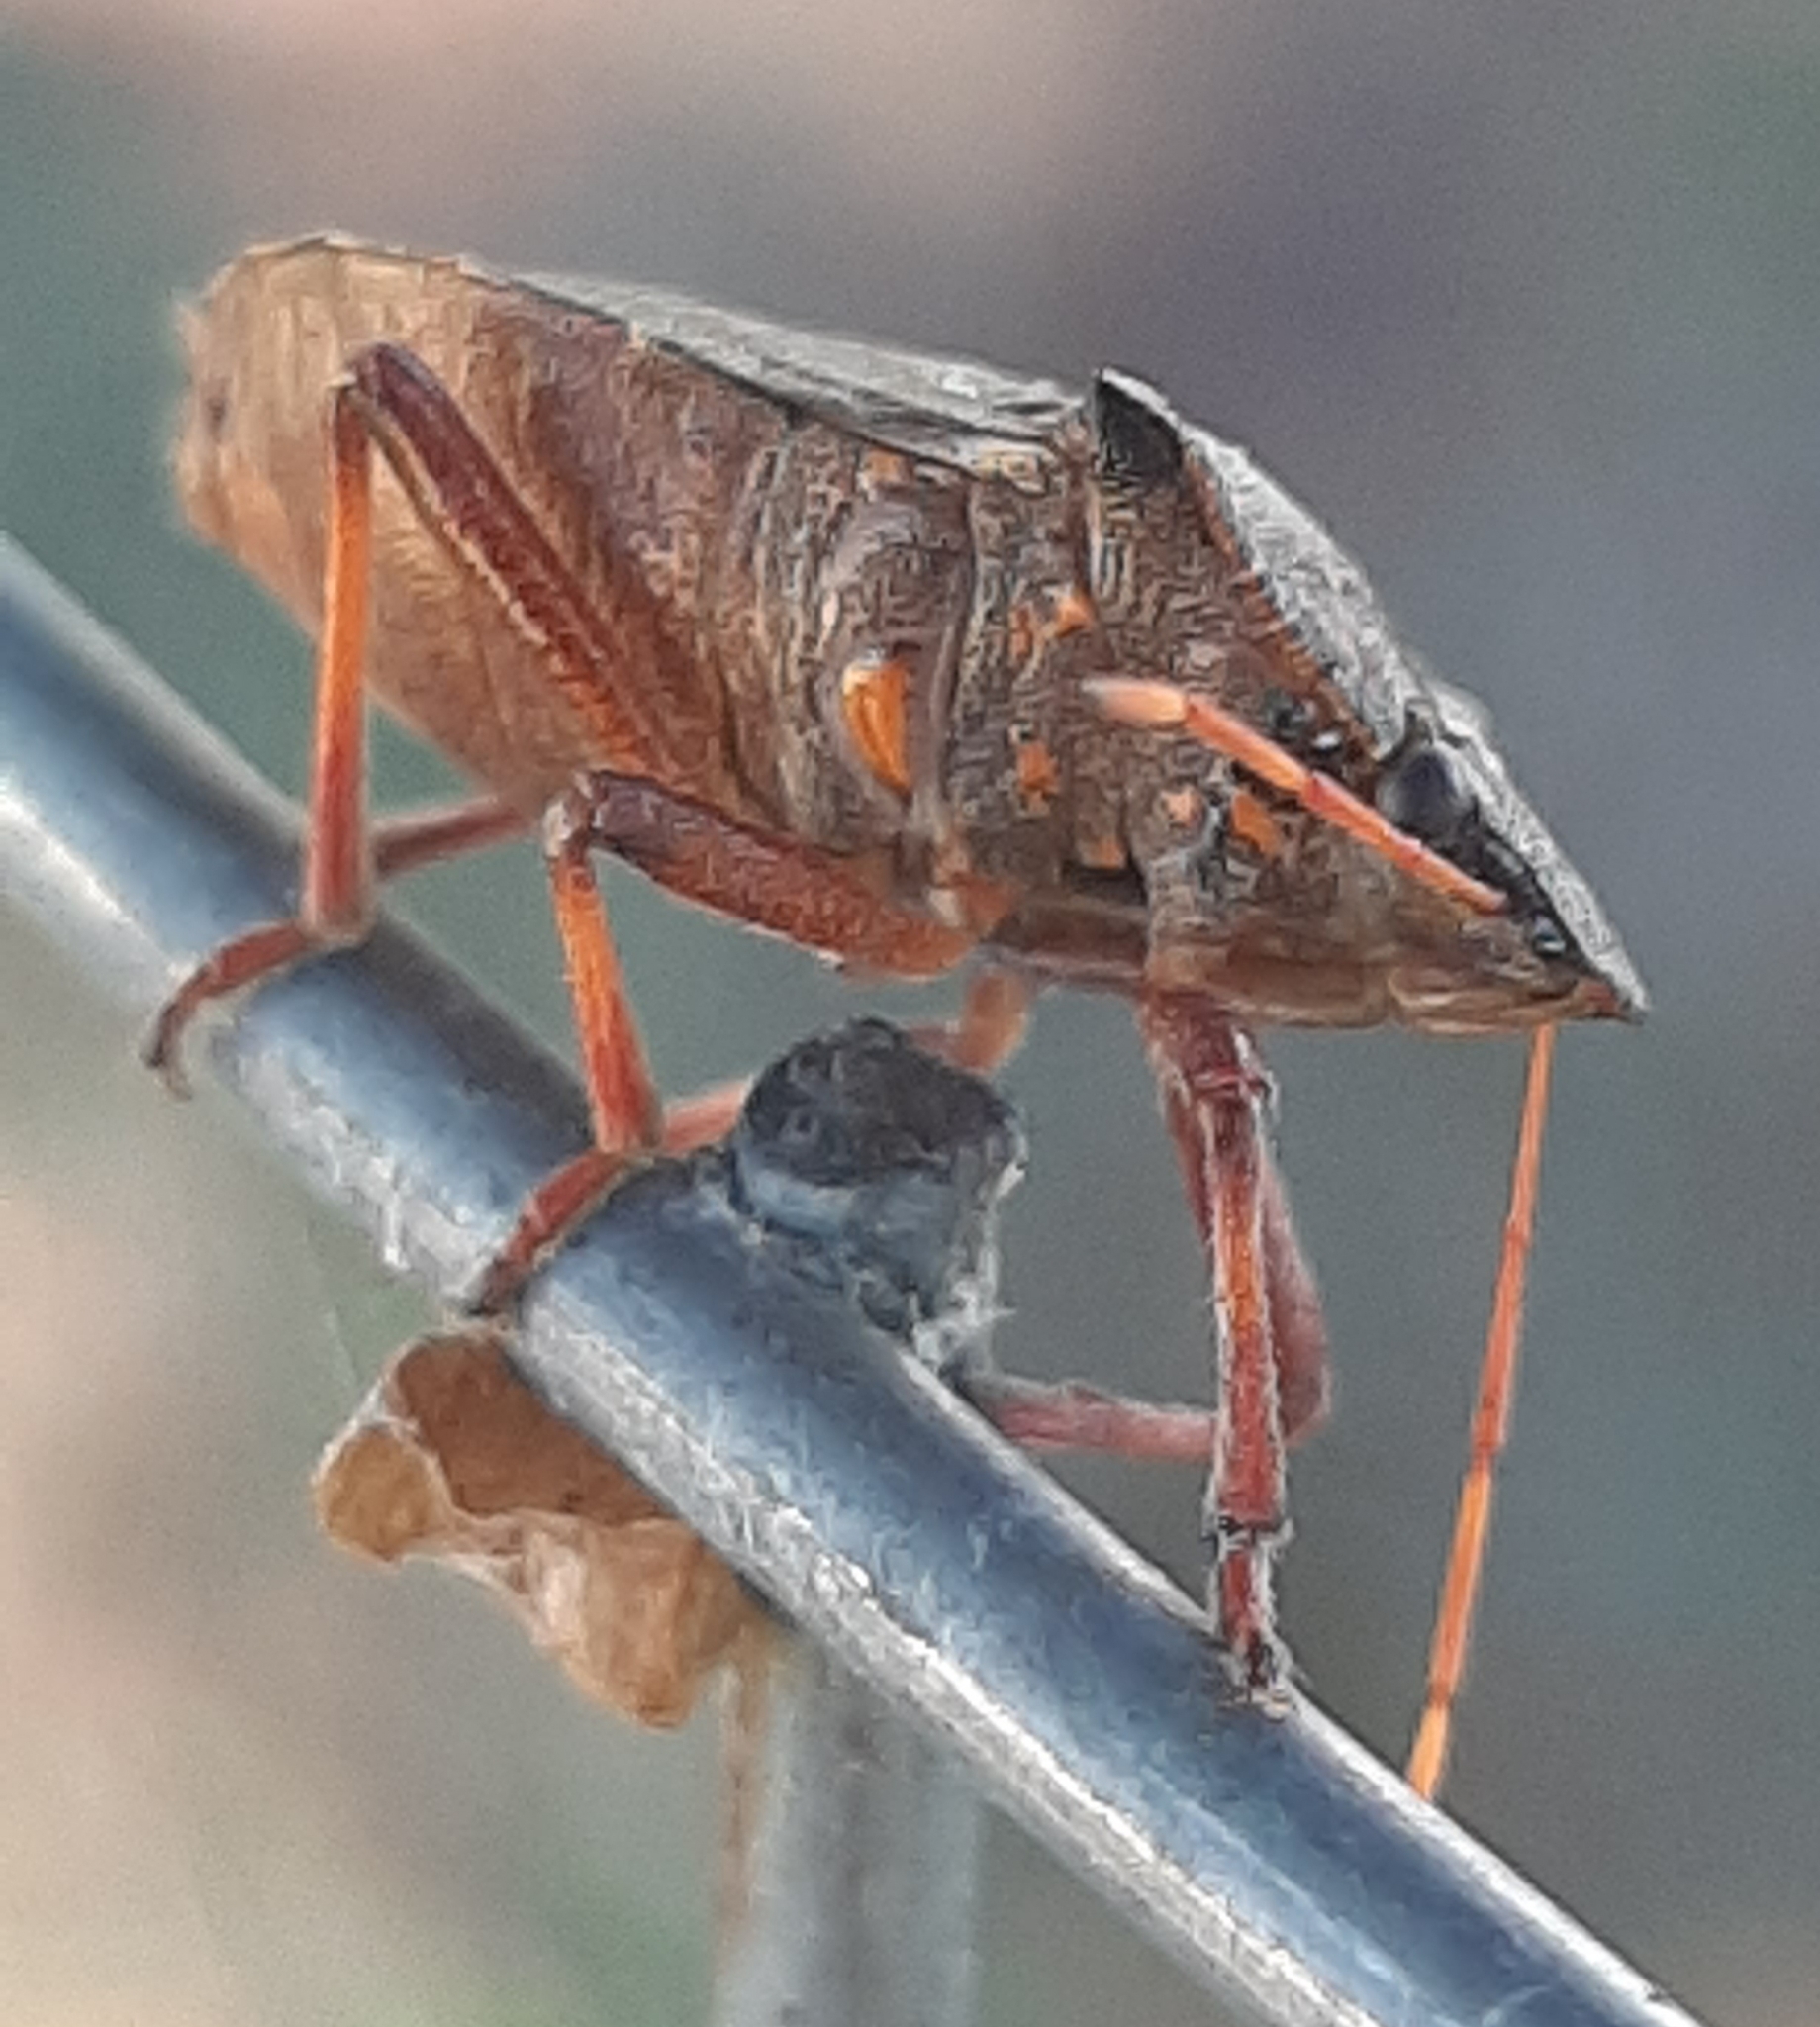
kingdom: Animalia
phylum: Arthropoda
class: Insecta
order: Hemiptera
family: Pentatomidae
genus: Picromerus
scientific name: Picromerus bidens
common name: Spiked shieldbug
